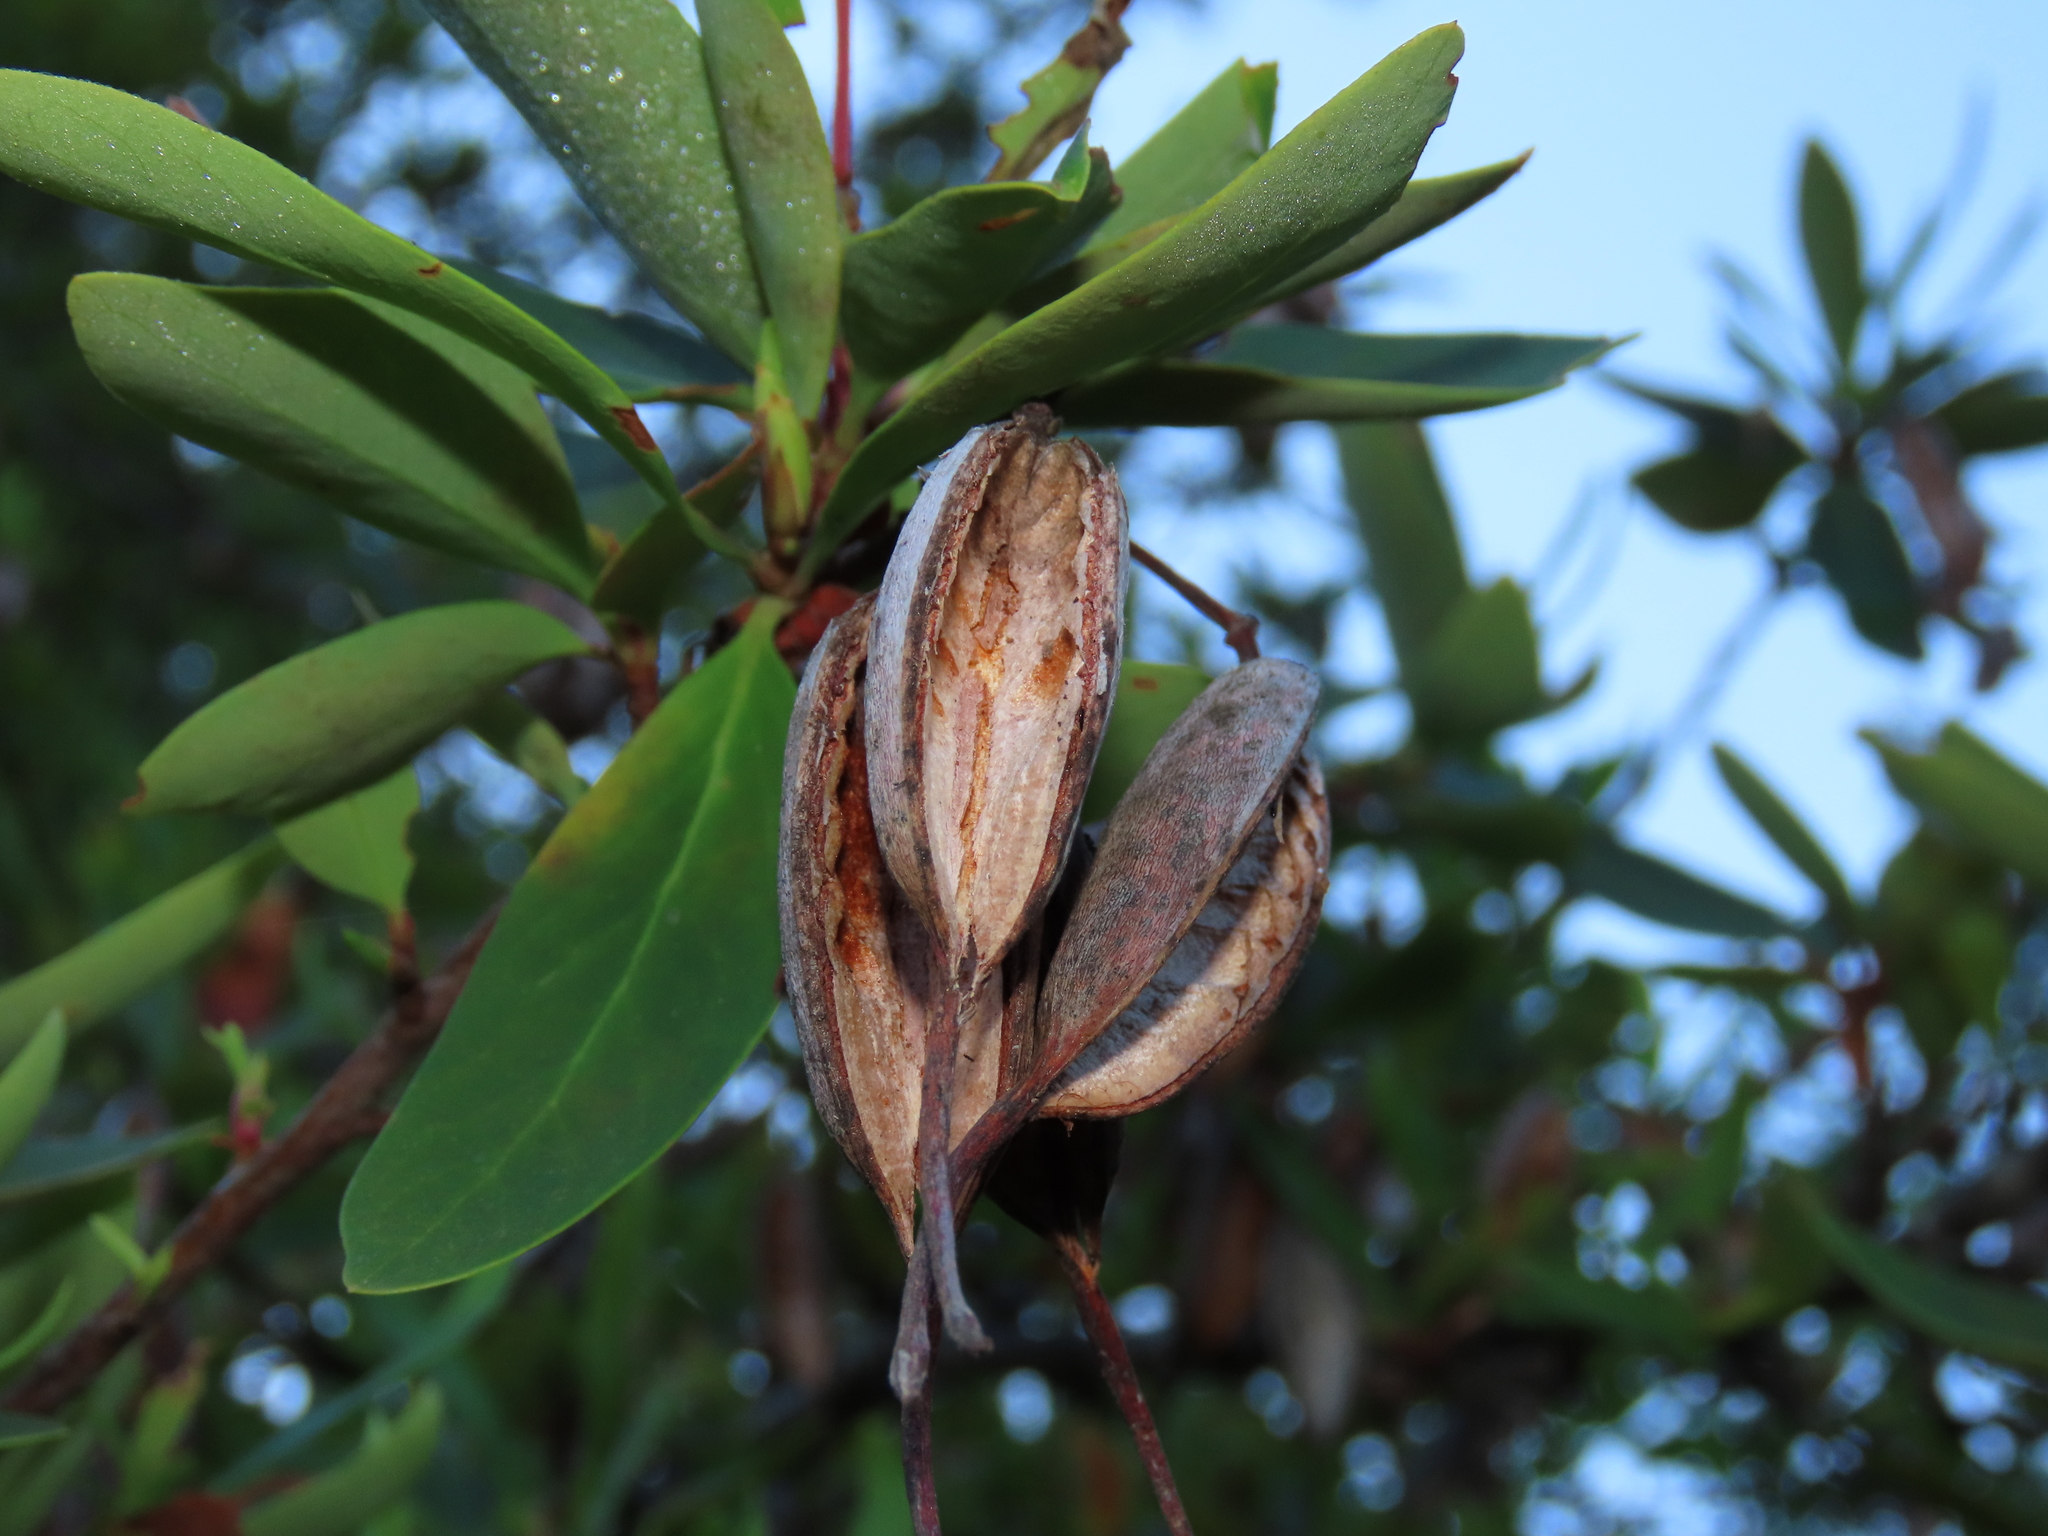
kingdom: Plantae
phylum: Tracheophyta
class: Magnoliopsida
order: Proteales
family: Proteaceae
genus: Embothrium
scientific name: Embothrium coccineum
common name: Chilean firebush
